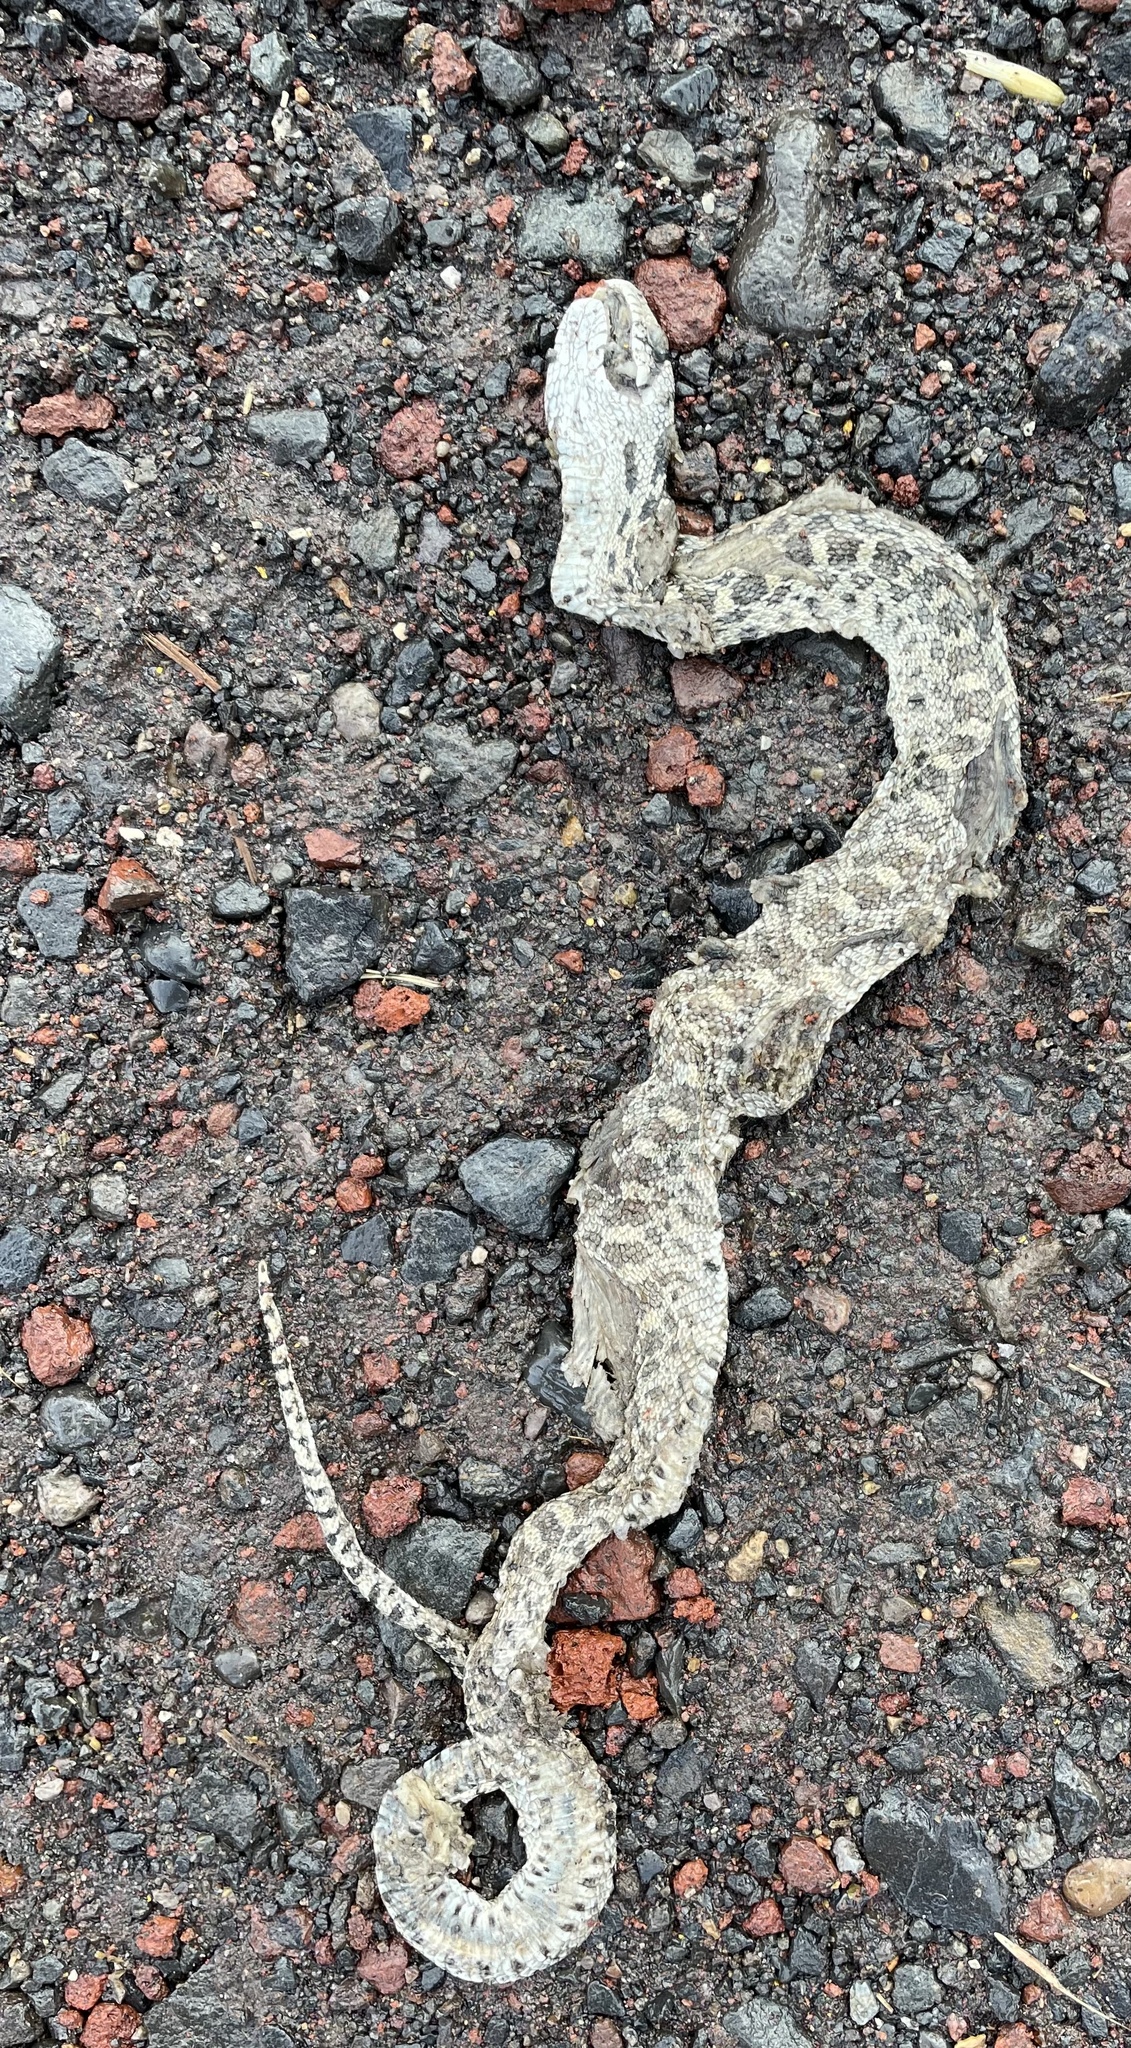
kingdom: Animalia
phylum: Chordata
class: Squamata
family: Colubridae
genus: Pituophis
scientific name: Pituophis catenifer
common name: Gopher snake
